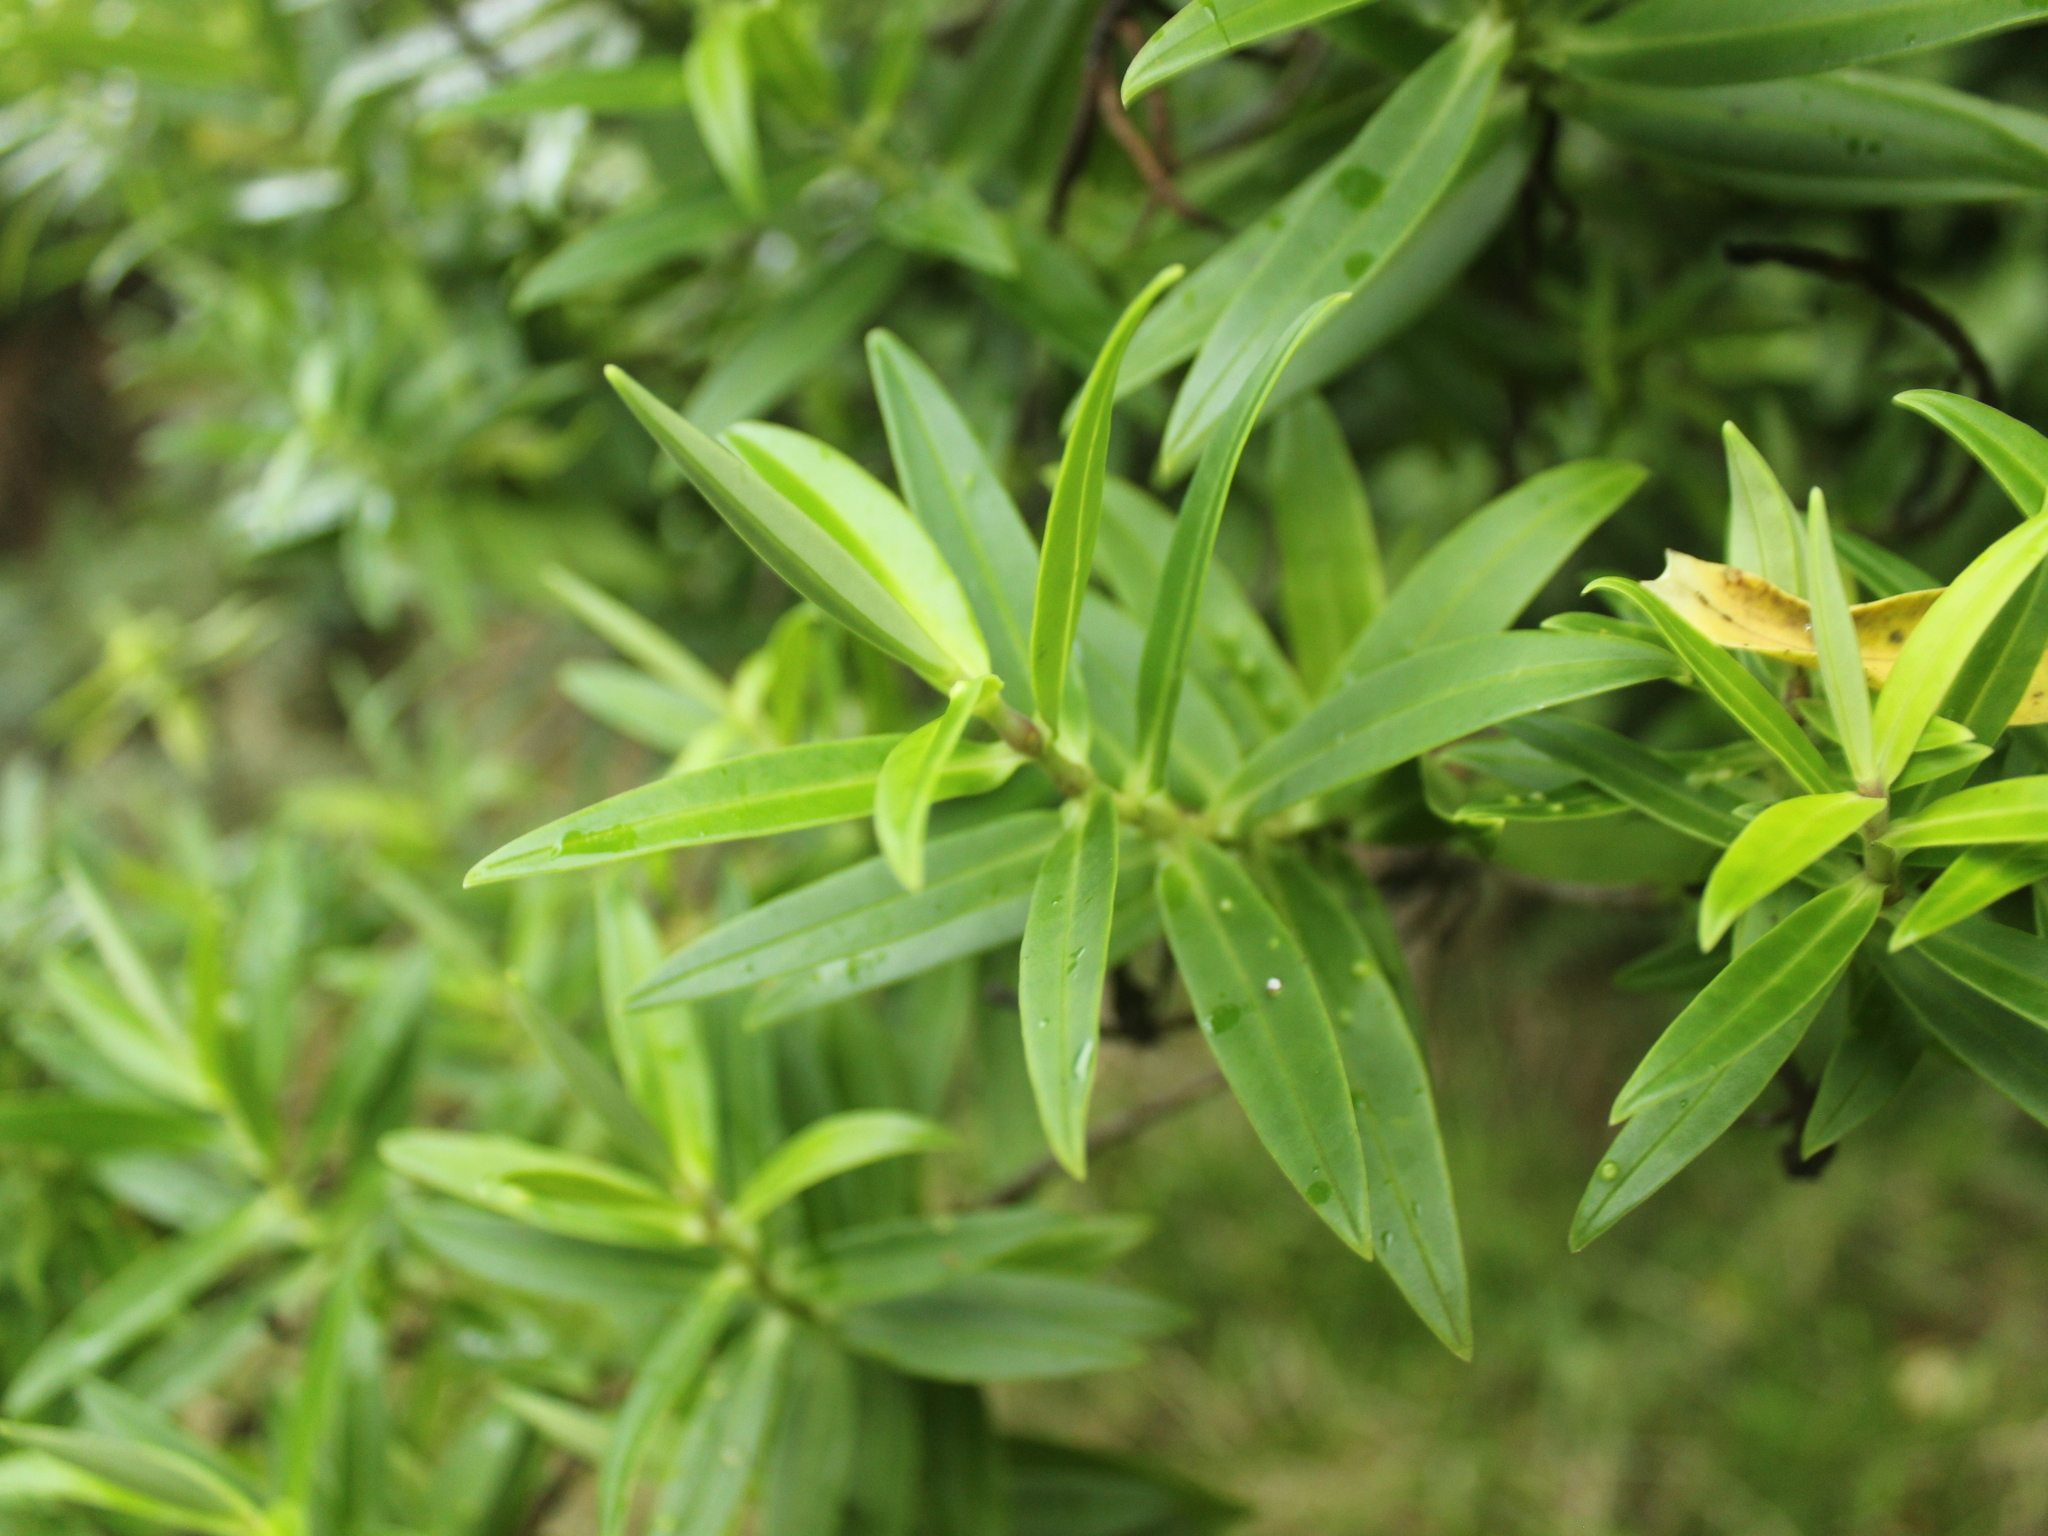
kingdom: Plantae
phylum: Tracheophyta
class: Magnoliopsida
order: Lamiales
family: Plantaginaceae
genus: Veronica
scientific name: Veronica barkeri
